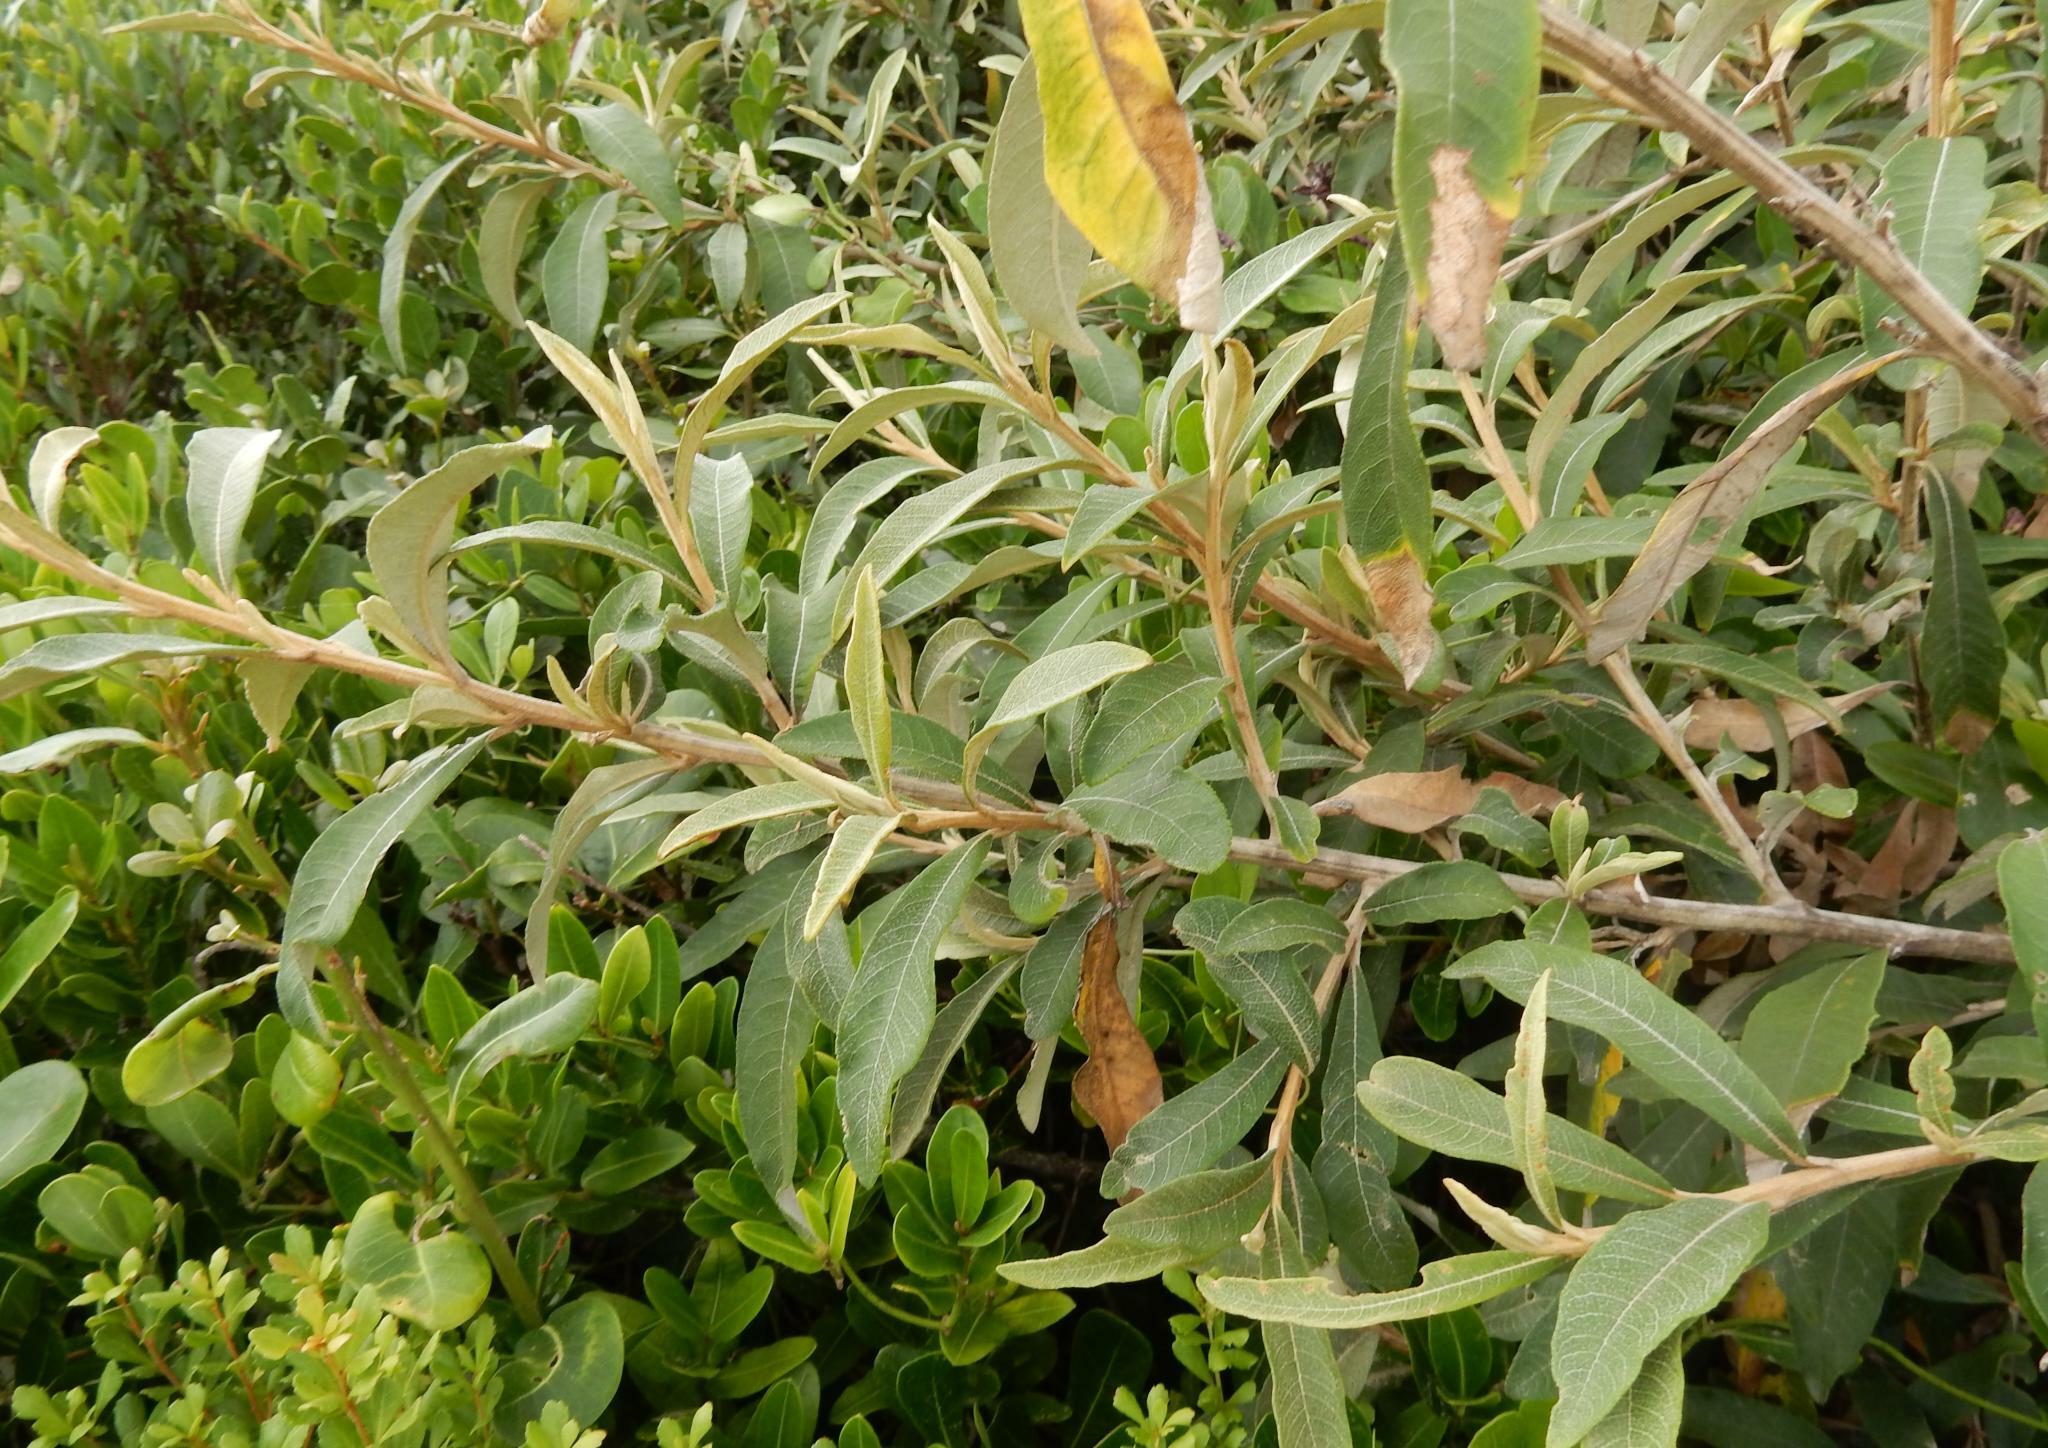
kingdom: Plantae
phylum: Tracheophyta
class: Magnoliopsida
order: Asterales
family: Asteraceae
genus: Tarchonanthus
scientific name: Tarchonanthus littoralis
